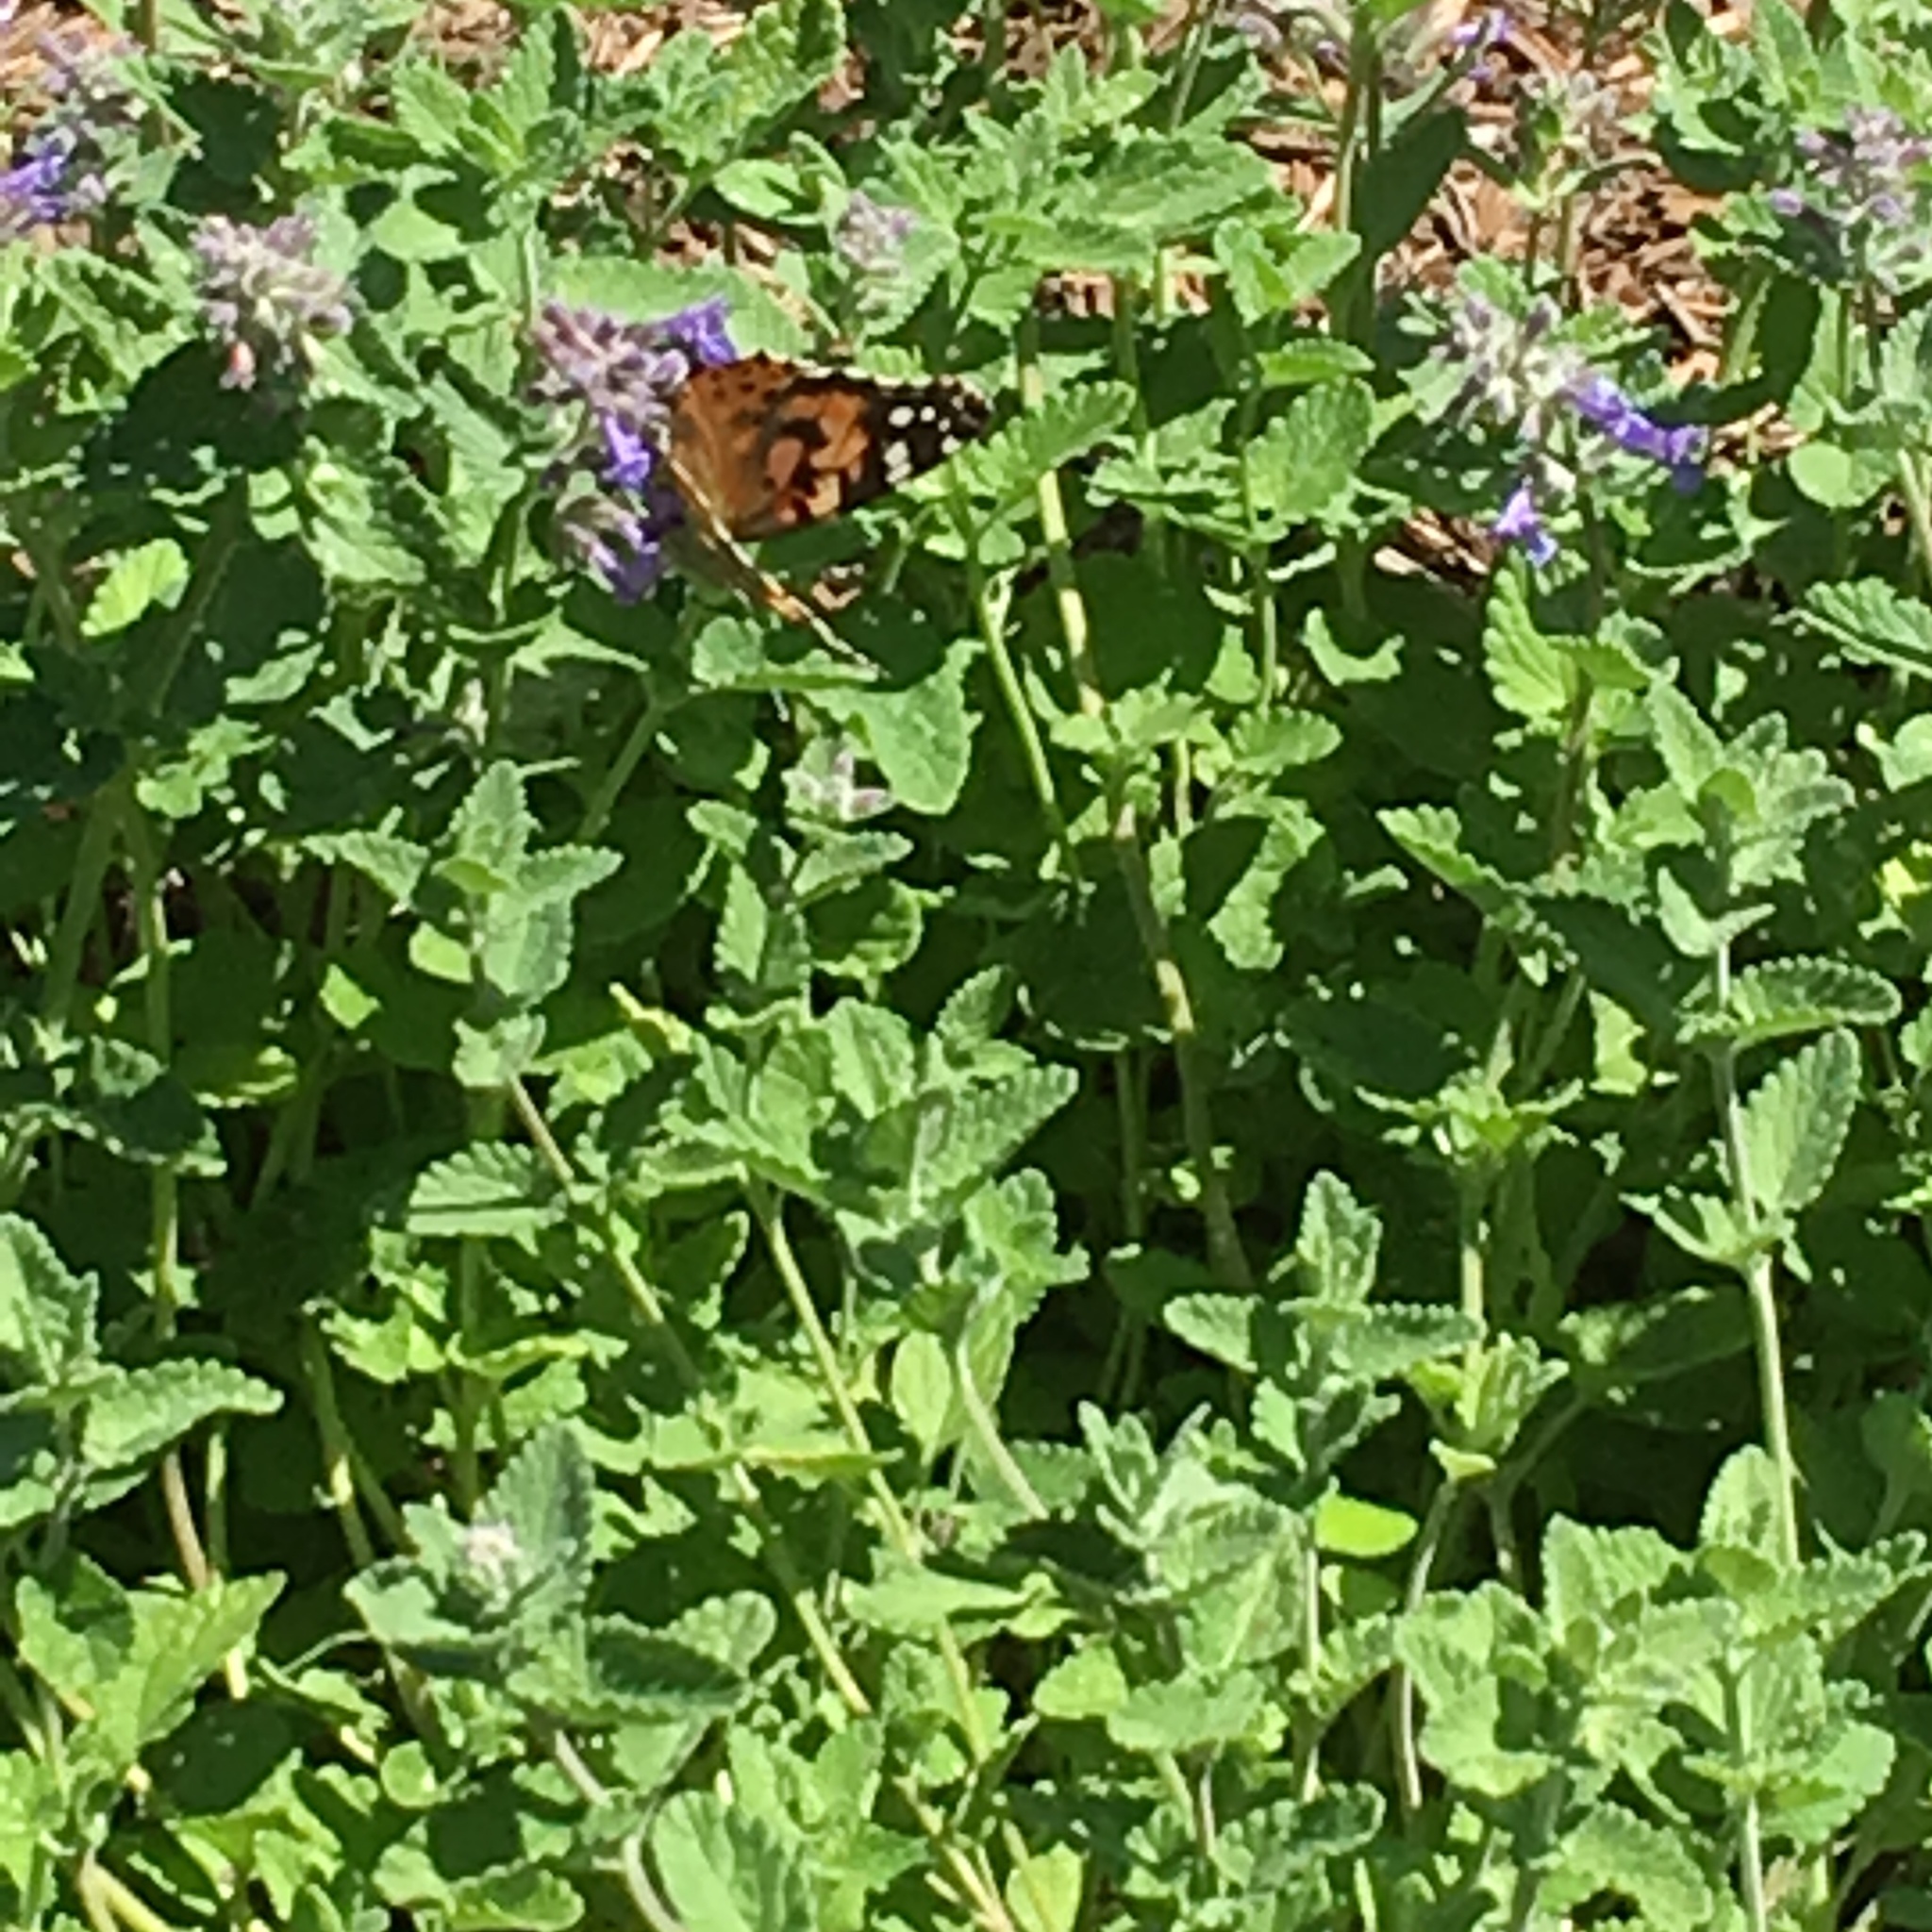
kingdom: Animalia
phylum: Arthropoda
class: Insecta
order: Lepidoptera
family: Nymphalidae
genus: Vanessa
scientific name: Vanessa cardui
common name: Painted lady
